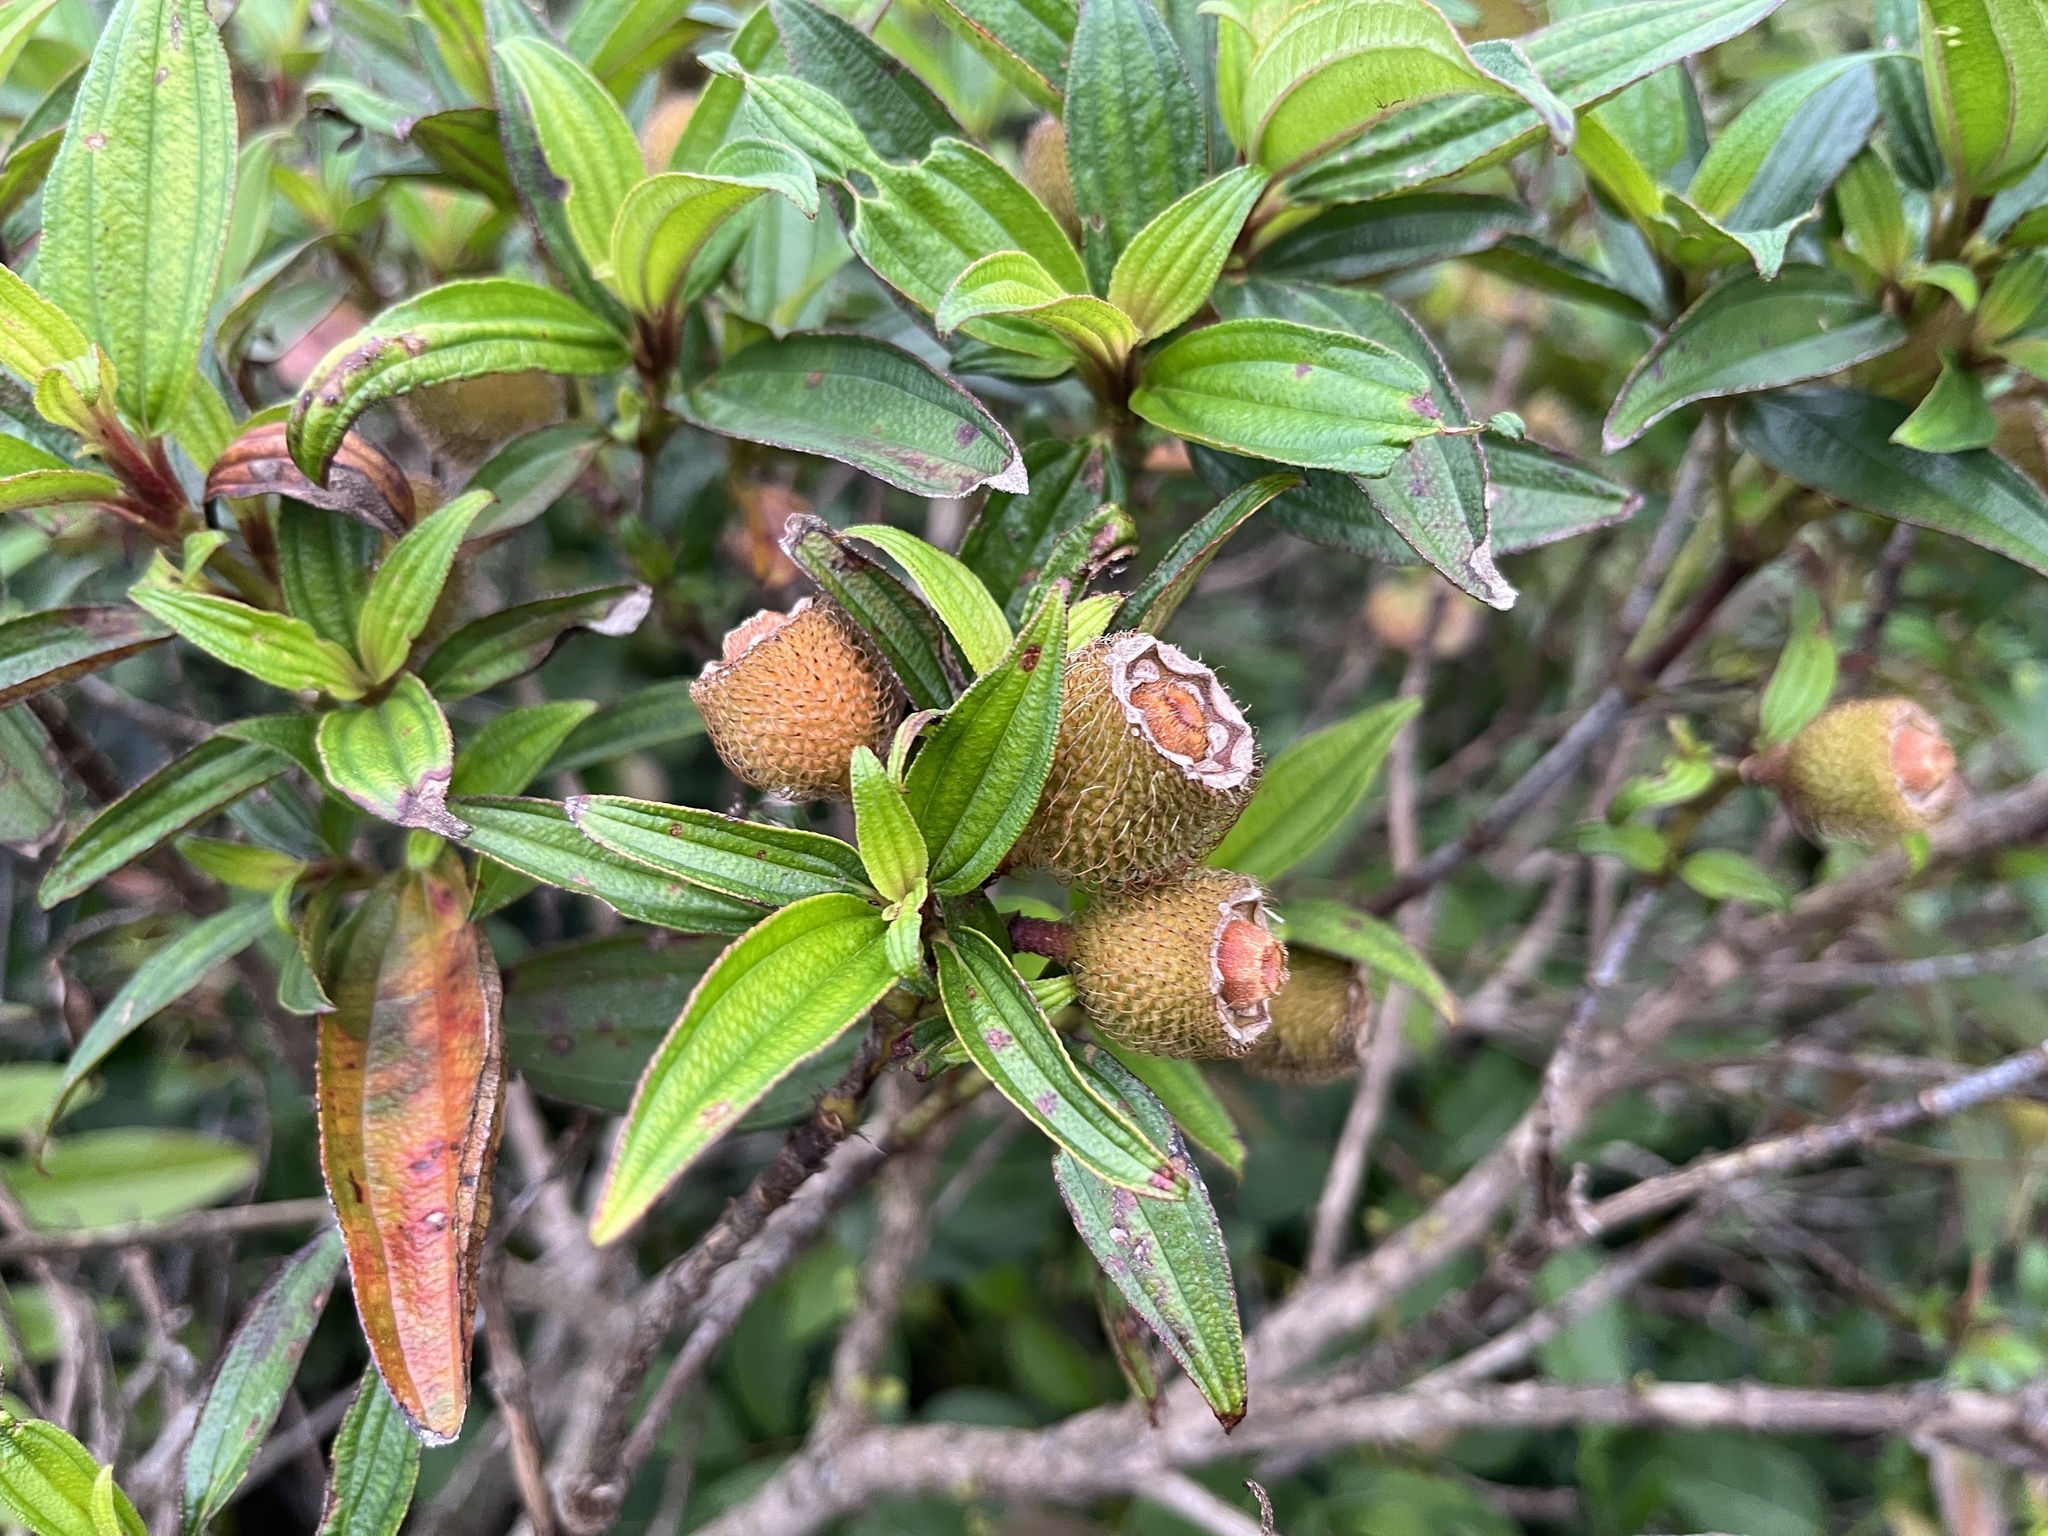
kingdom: Plantae
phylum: Tracheophyta
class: Magnoliopsida
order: Myrtales
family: Melastomataceae
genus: Melastoma
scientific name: Melastoma sanguineum
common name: Red melastome
